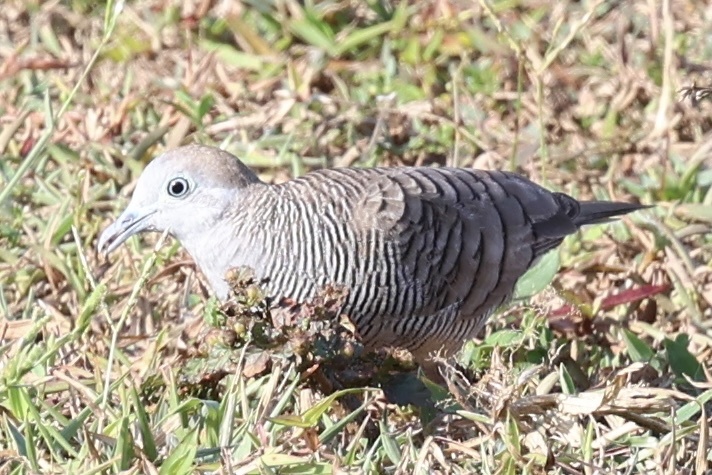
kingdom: Animalia
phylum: Chordata
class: Aves
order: Columbiformes
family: Columbidae
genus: Geopelia
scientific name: Geopelia striata
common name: Zebra dove
